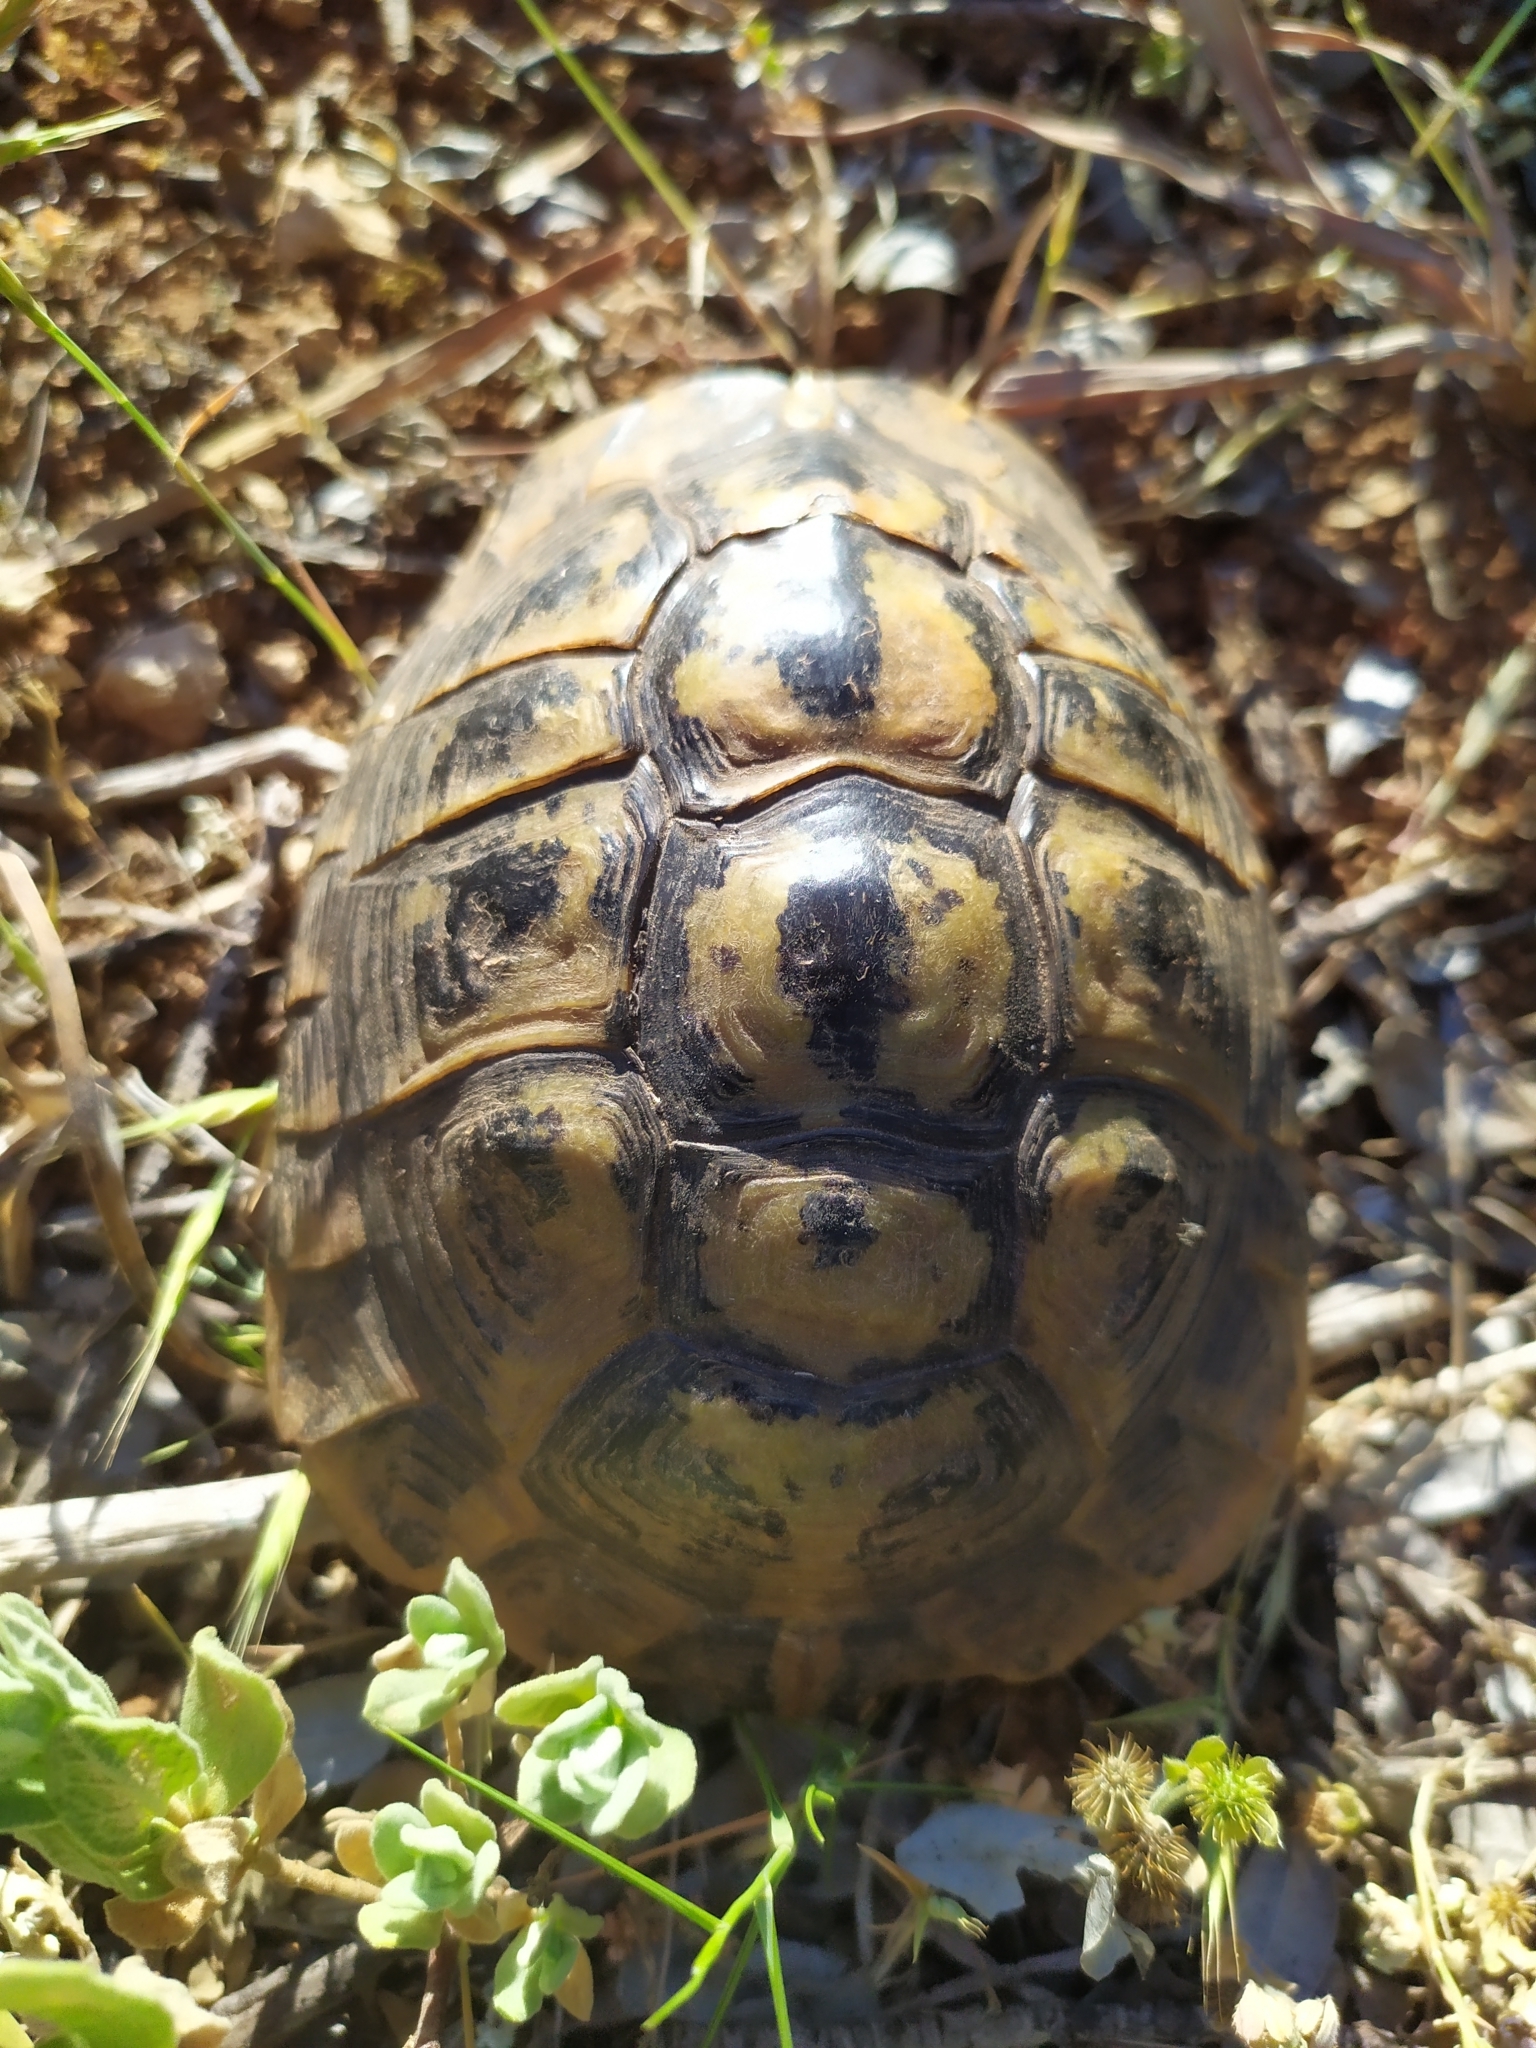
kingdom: Animalia
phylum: Chordata
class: Testudines
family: Testudinidae
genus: Testudo
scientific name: Testudo hermanni
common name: Hermann's tortoise
